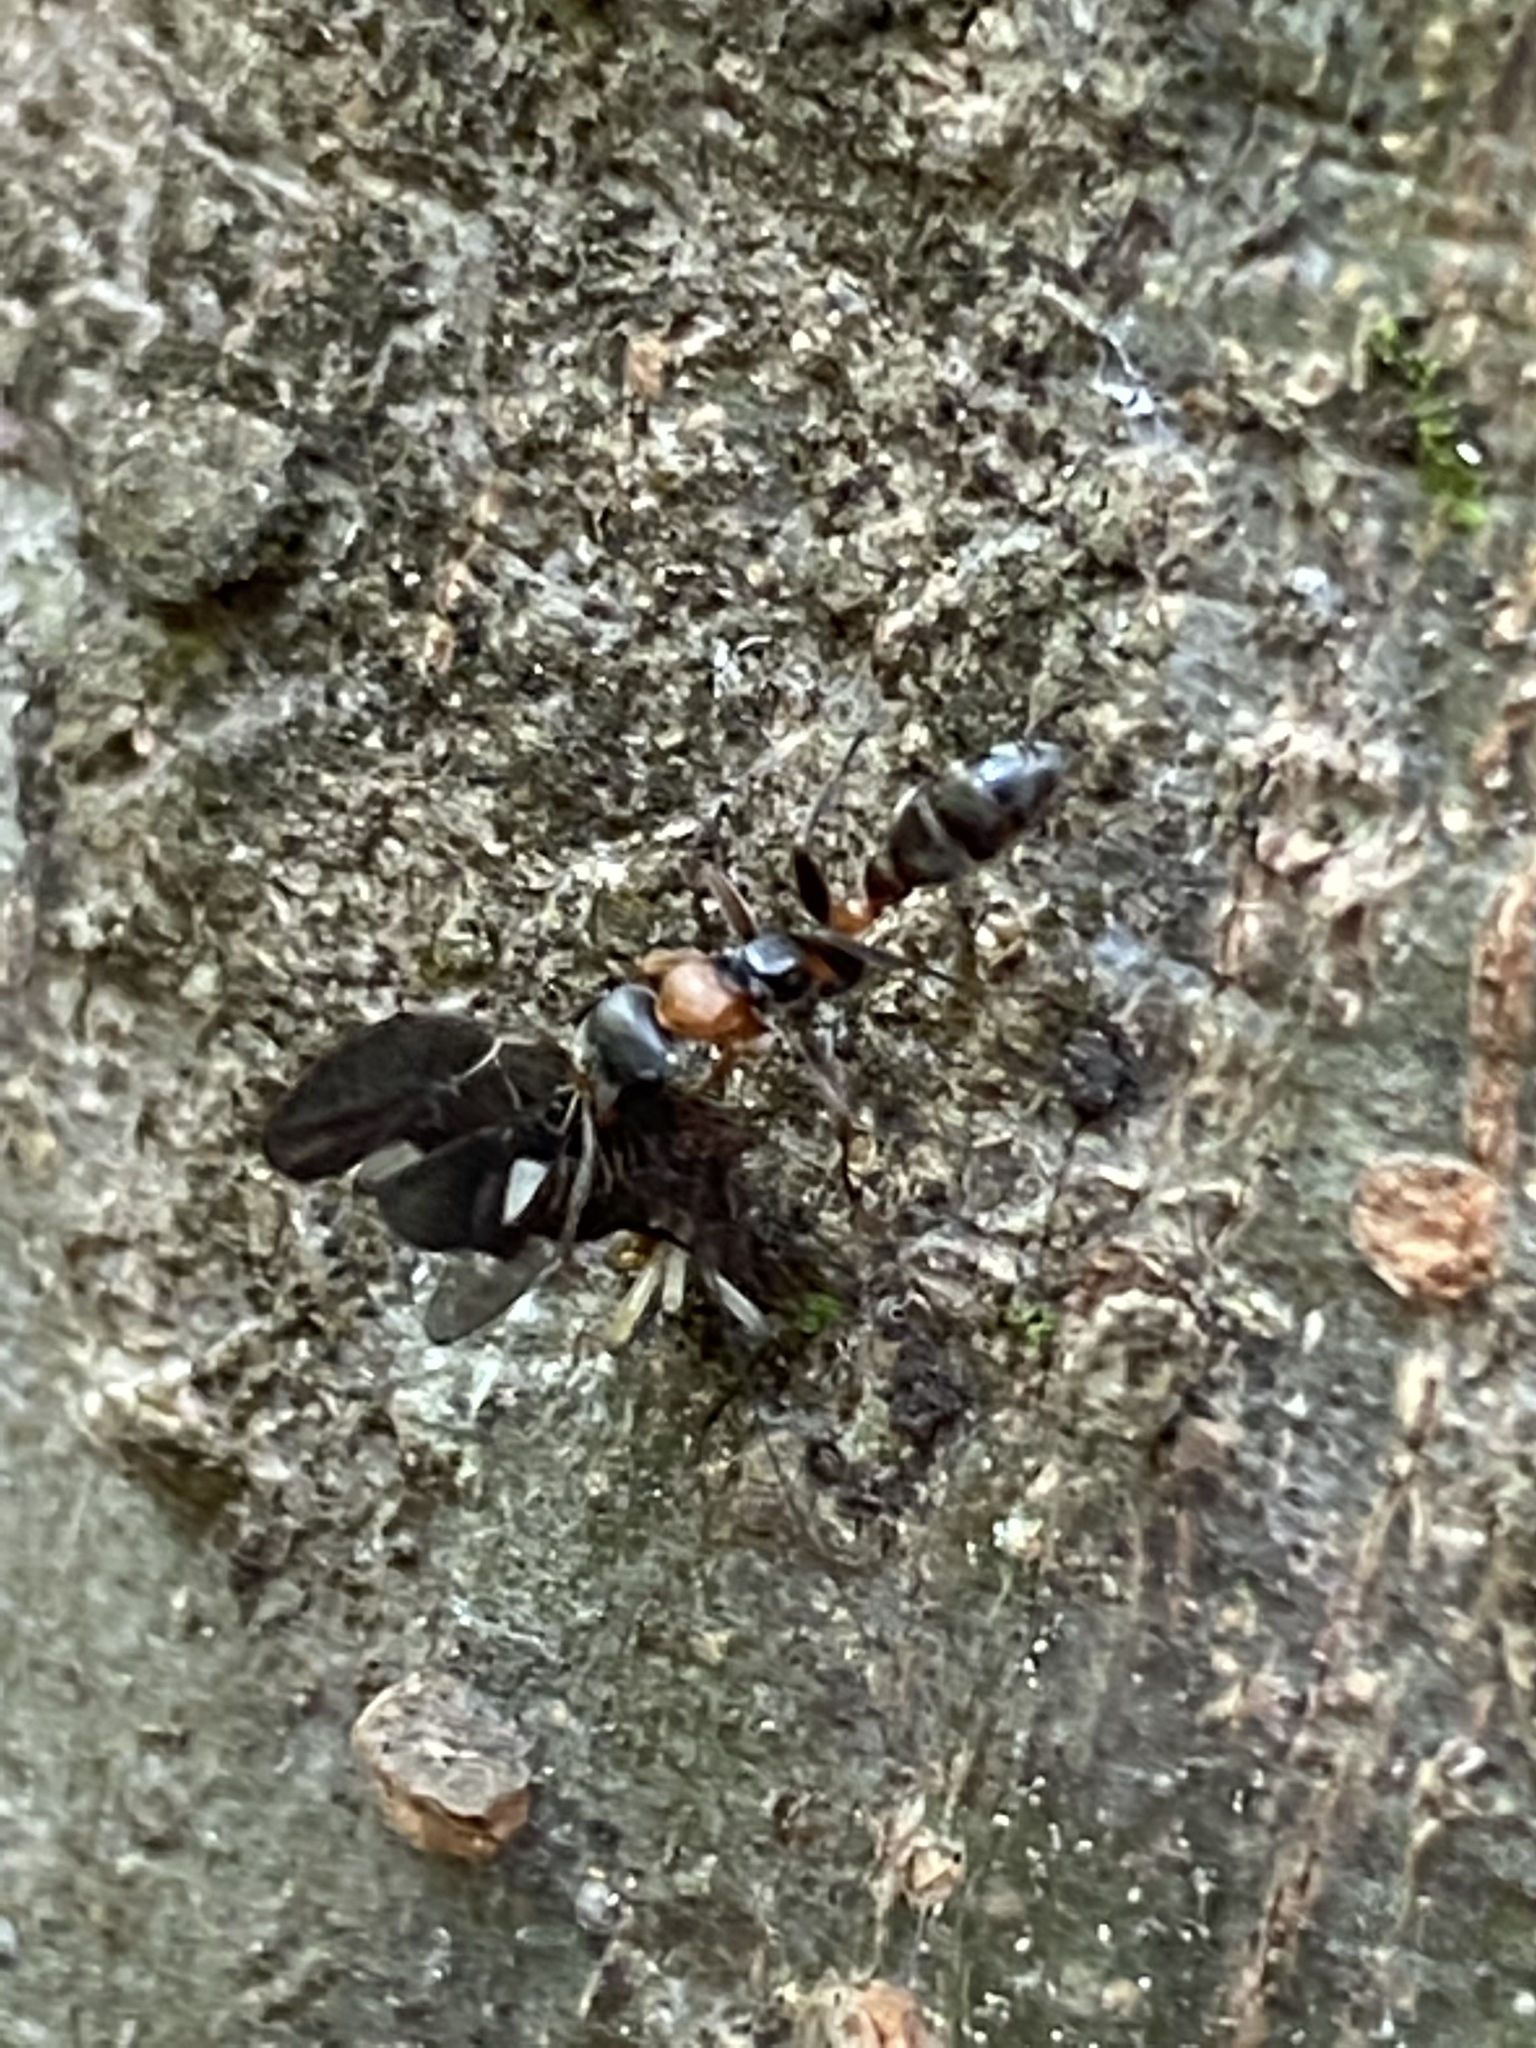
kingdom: Animalia
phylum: Arthropoda
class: Insecta
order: Hymenoptera
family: Formicidae
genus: Pseudomyrmex
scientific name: Pseudomyrmex gracilis
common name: Graceful twig ant
